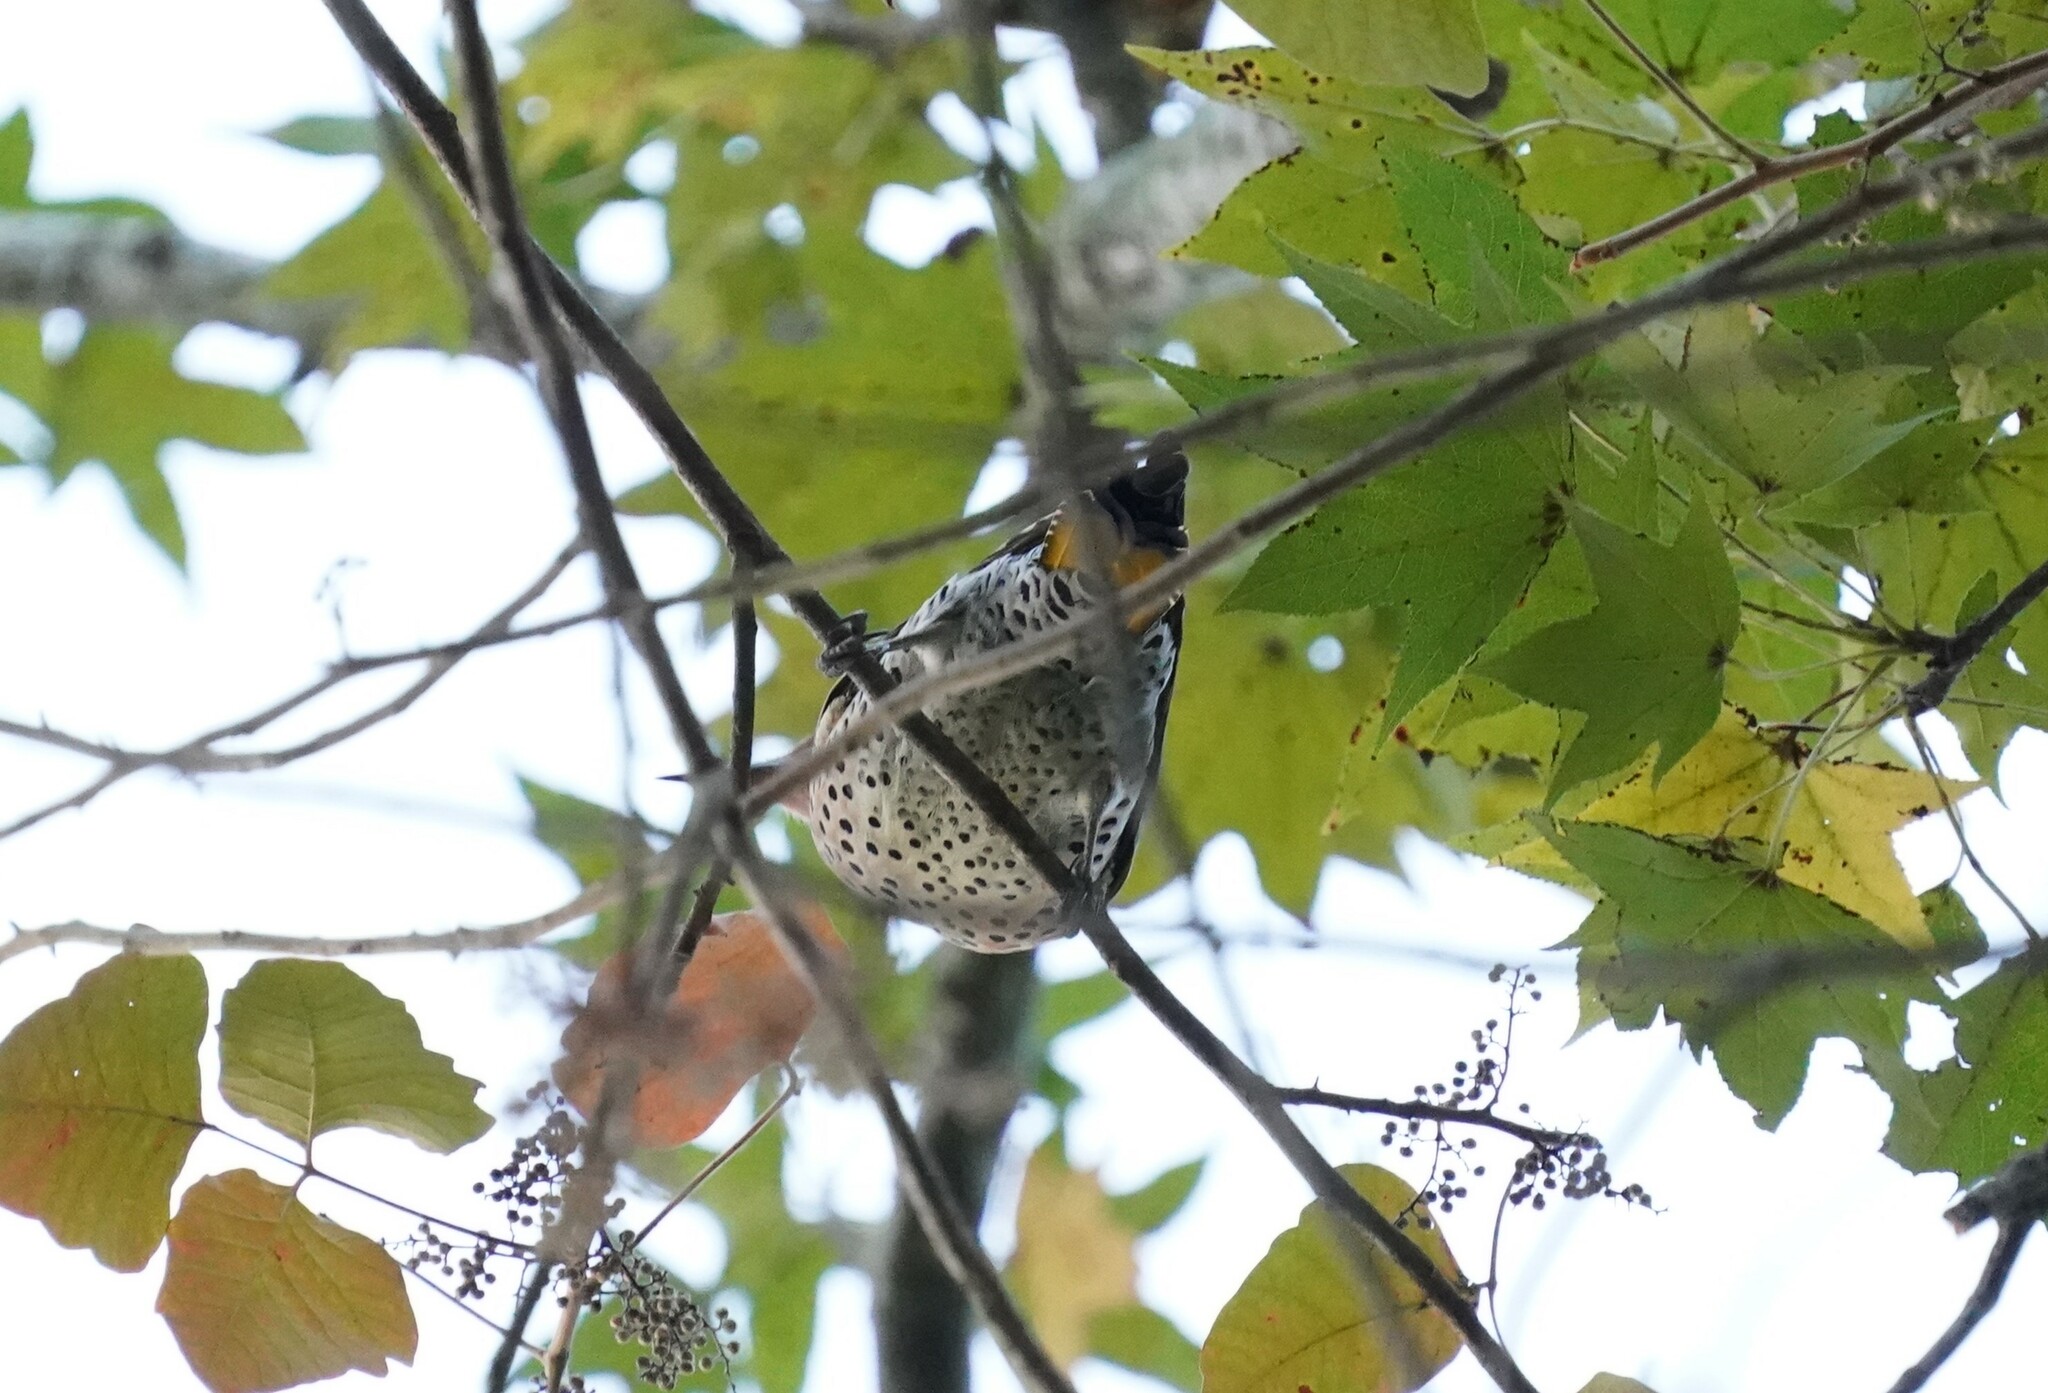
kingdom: Animalia
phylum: Chordata
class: Aves
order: Piciformes
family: Picidae
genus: Colaptes
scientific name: Colaptes auratus
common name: Northern flicker
